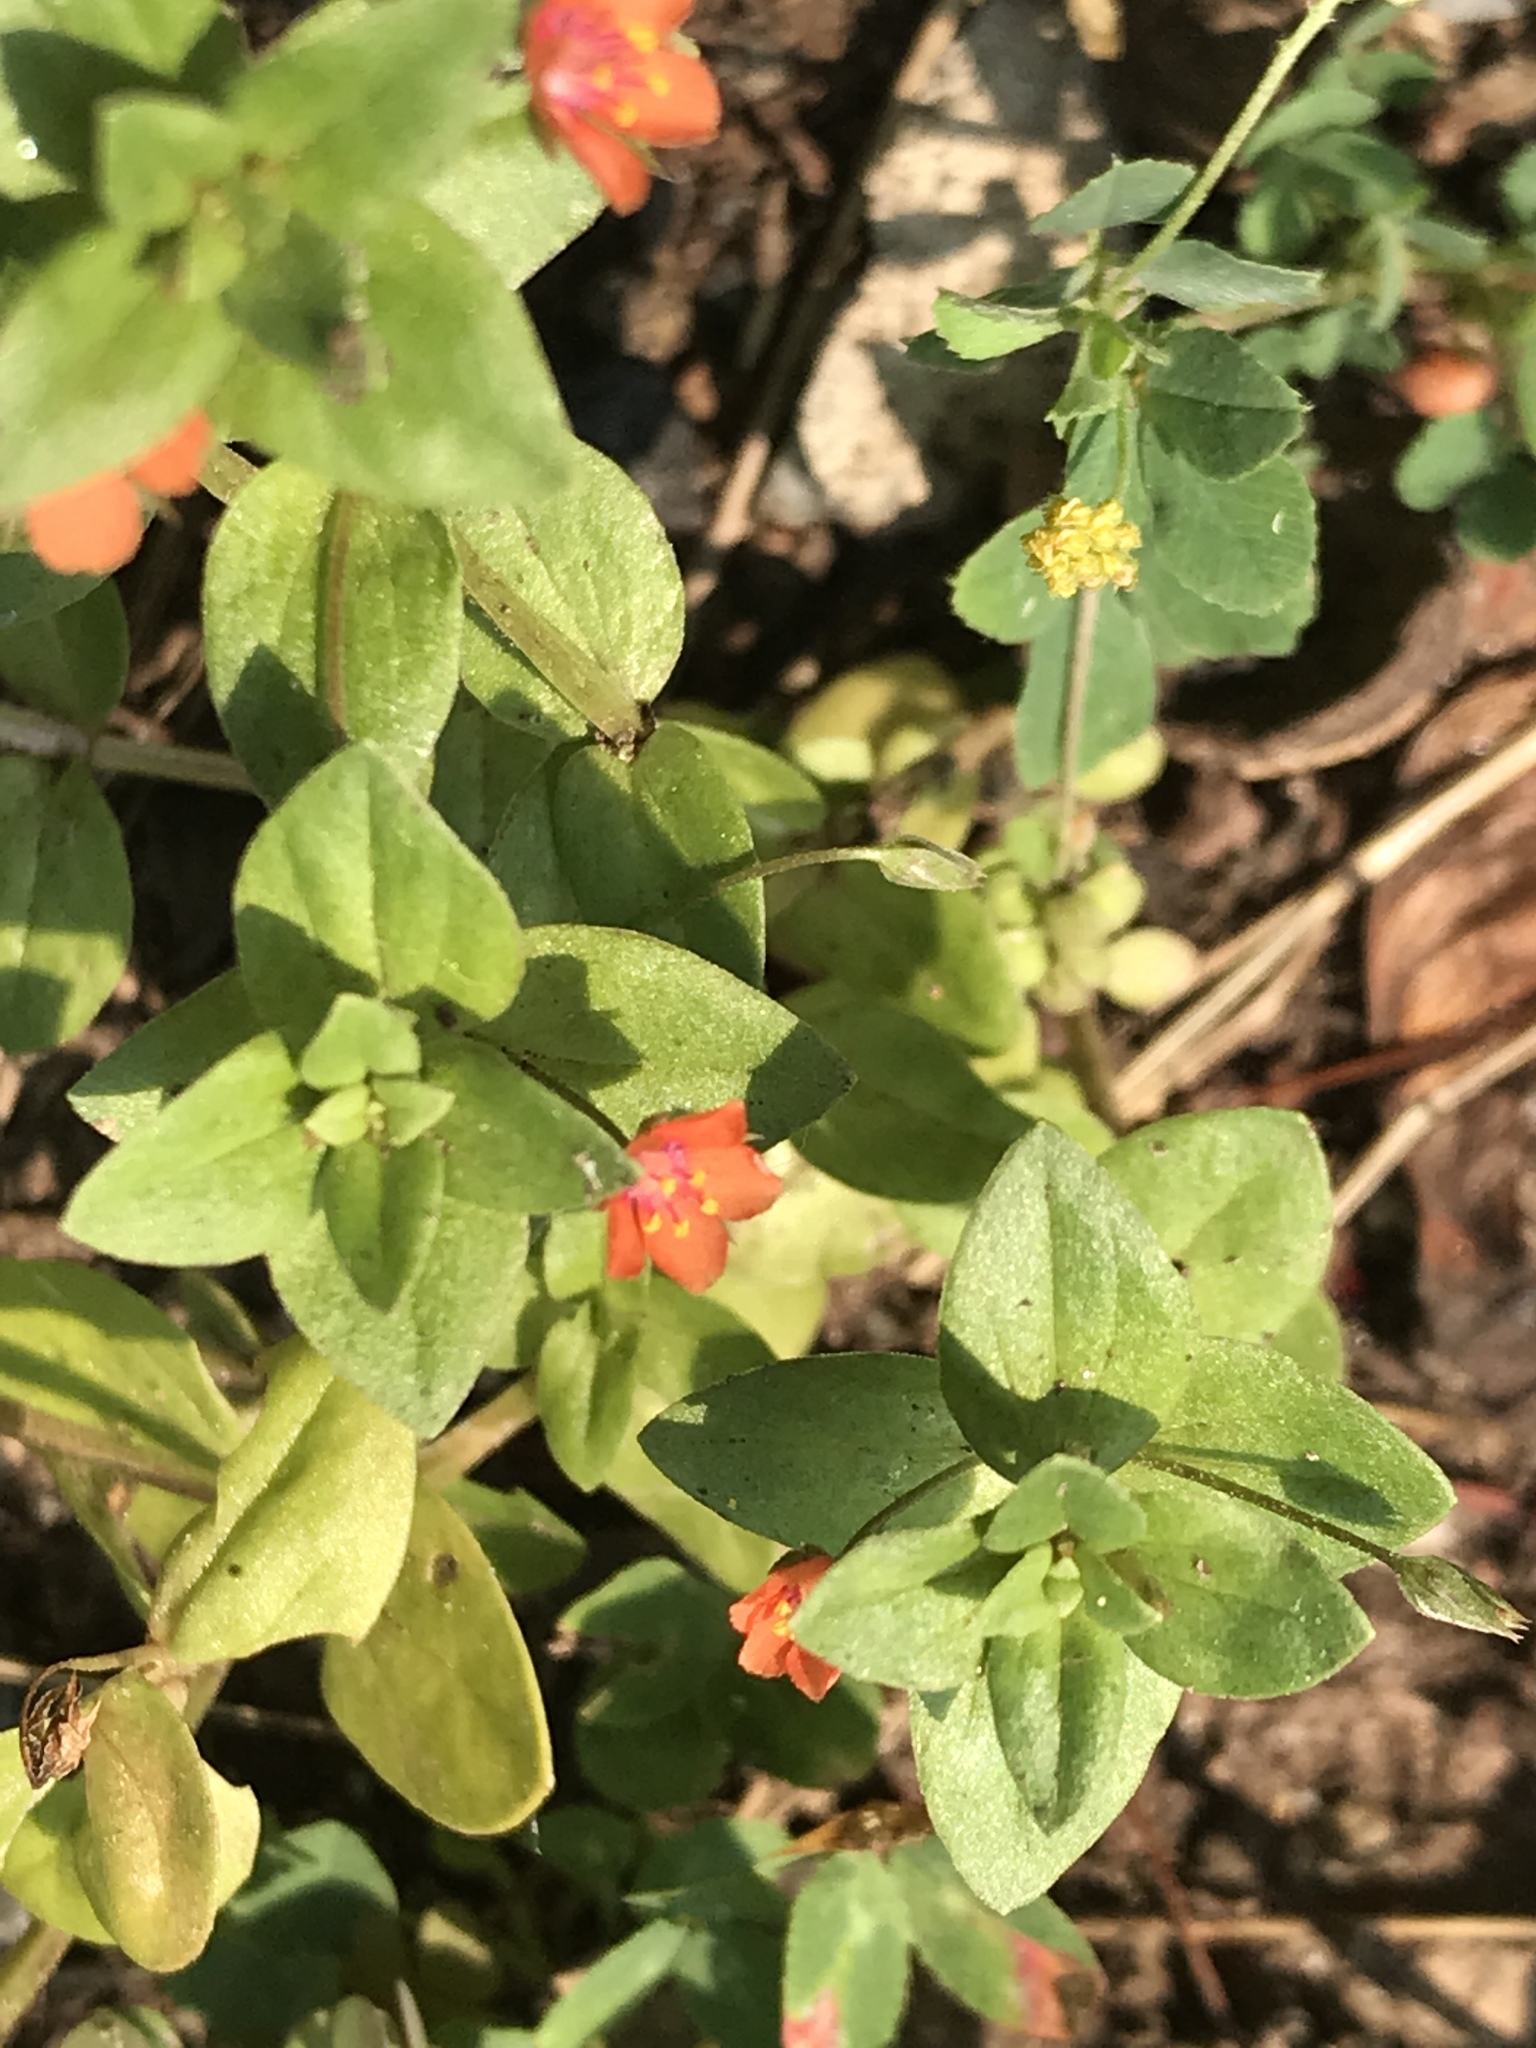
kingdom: Plantae
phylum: Tracheophyta
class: Magnoliopsida
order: Ericales
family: Primulaceae
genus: Lysimachia
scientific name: Lysimachia arvensis
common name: Scarlet pimpernel
